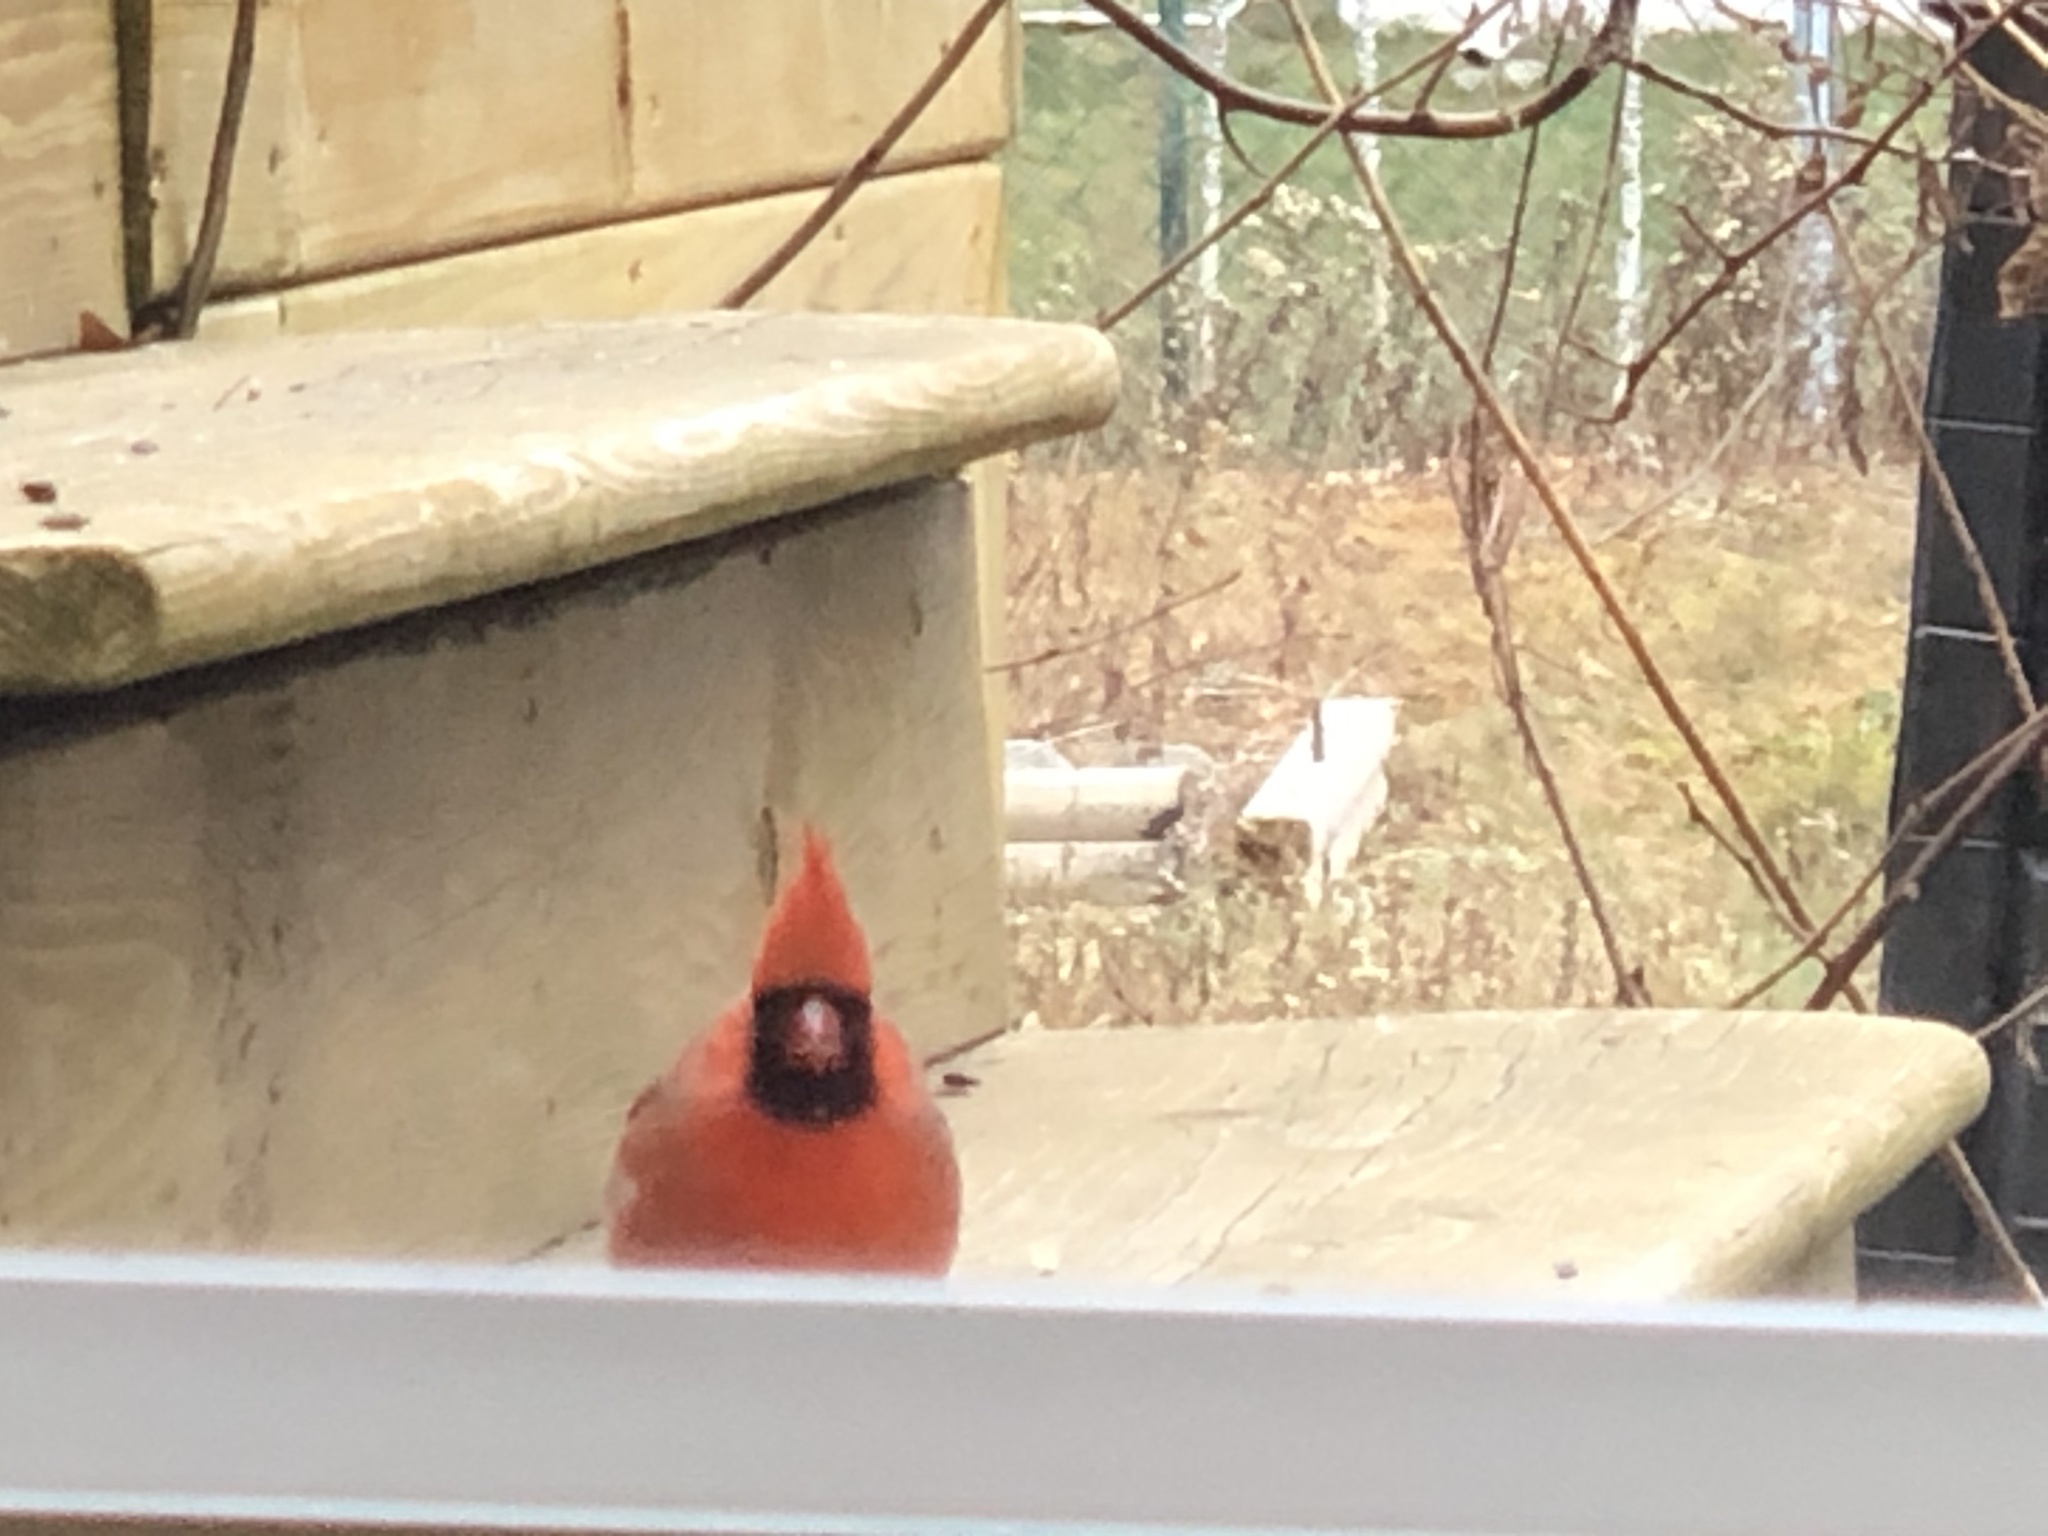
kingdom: Animalia
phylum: Chordata
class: Aves
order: Passeriformes
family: Cardinalidae
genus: Cardinalis
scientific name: Cardinalis cardinalis
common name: Northern cardinal
